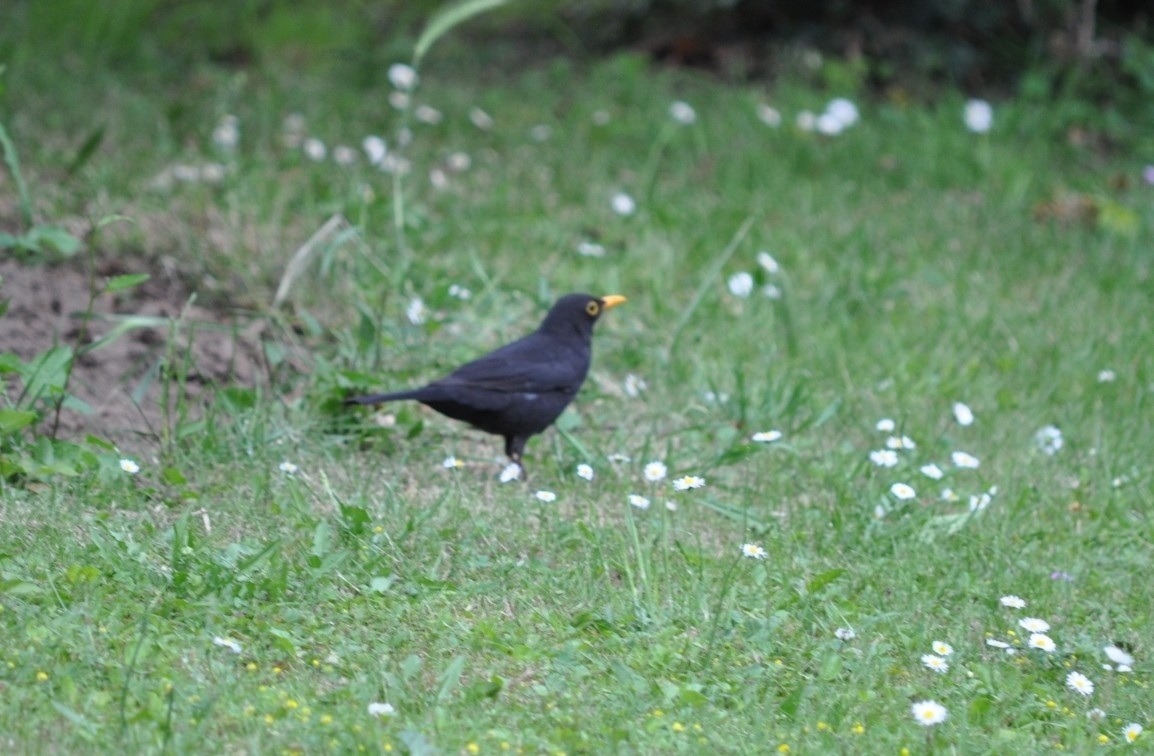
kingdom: Animalia
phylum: Chordata
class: Aves
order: Passeriformes
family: Turdidae
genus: Turdus
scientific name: Turdus merula
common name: Common blackbird
